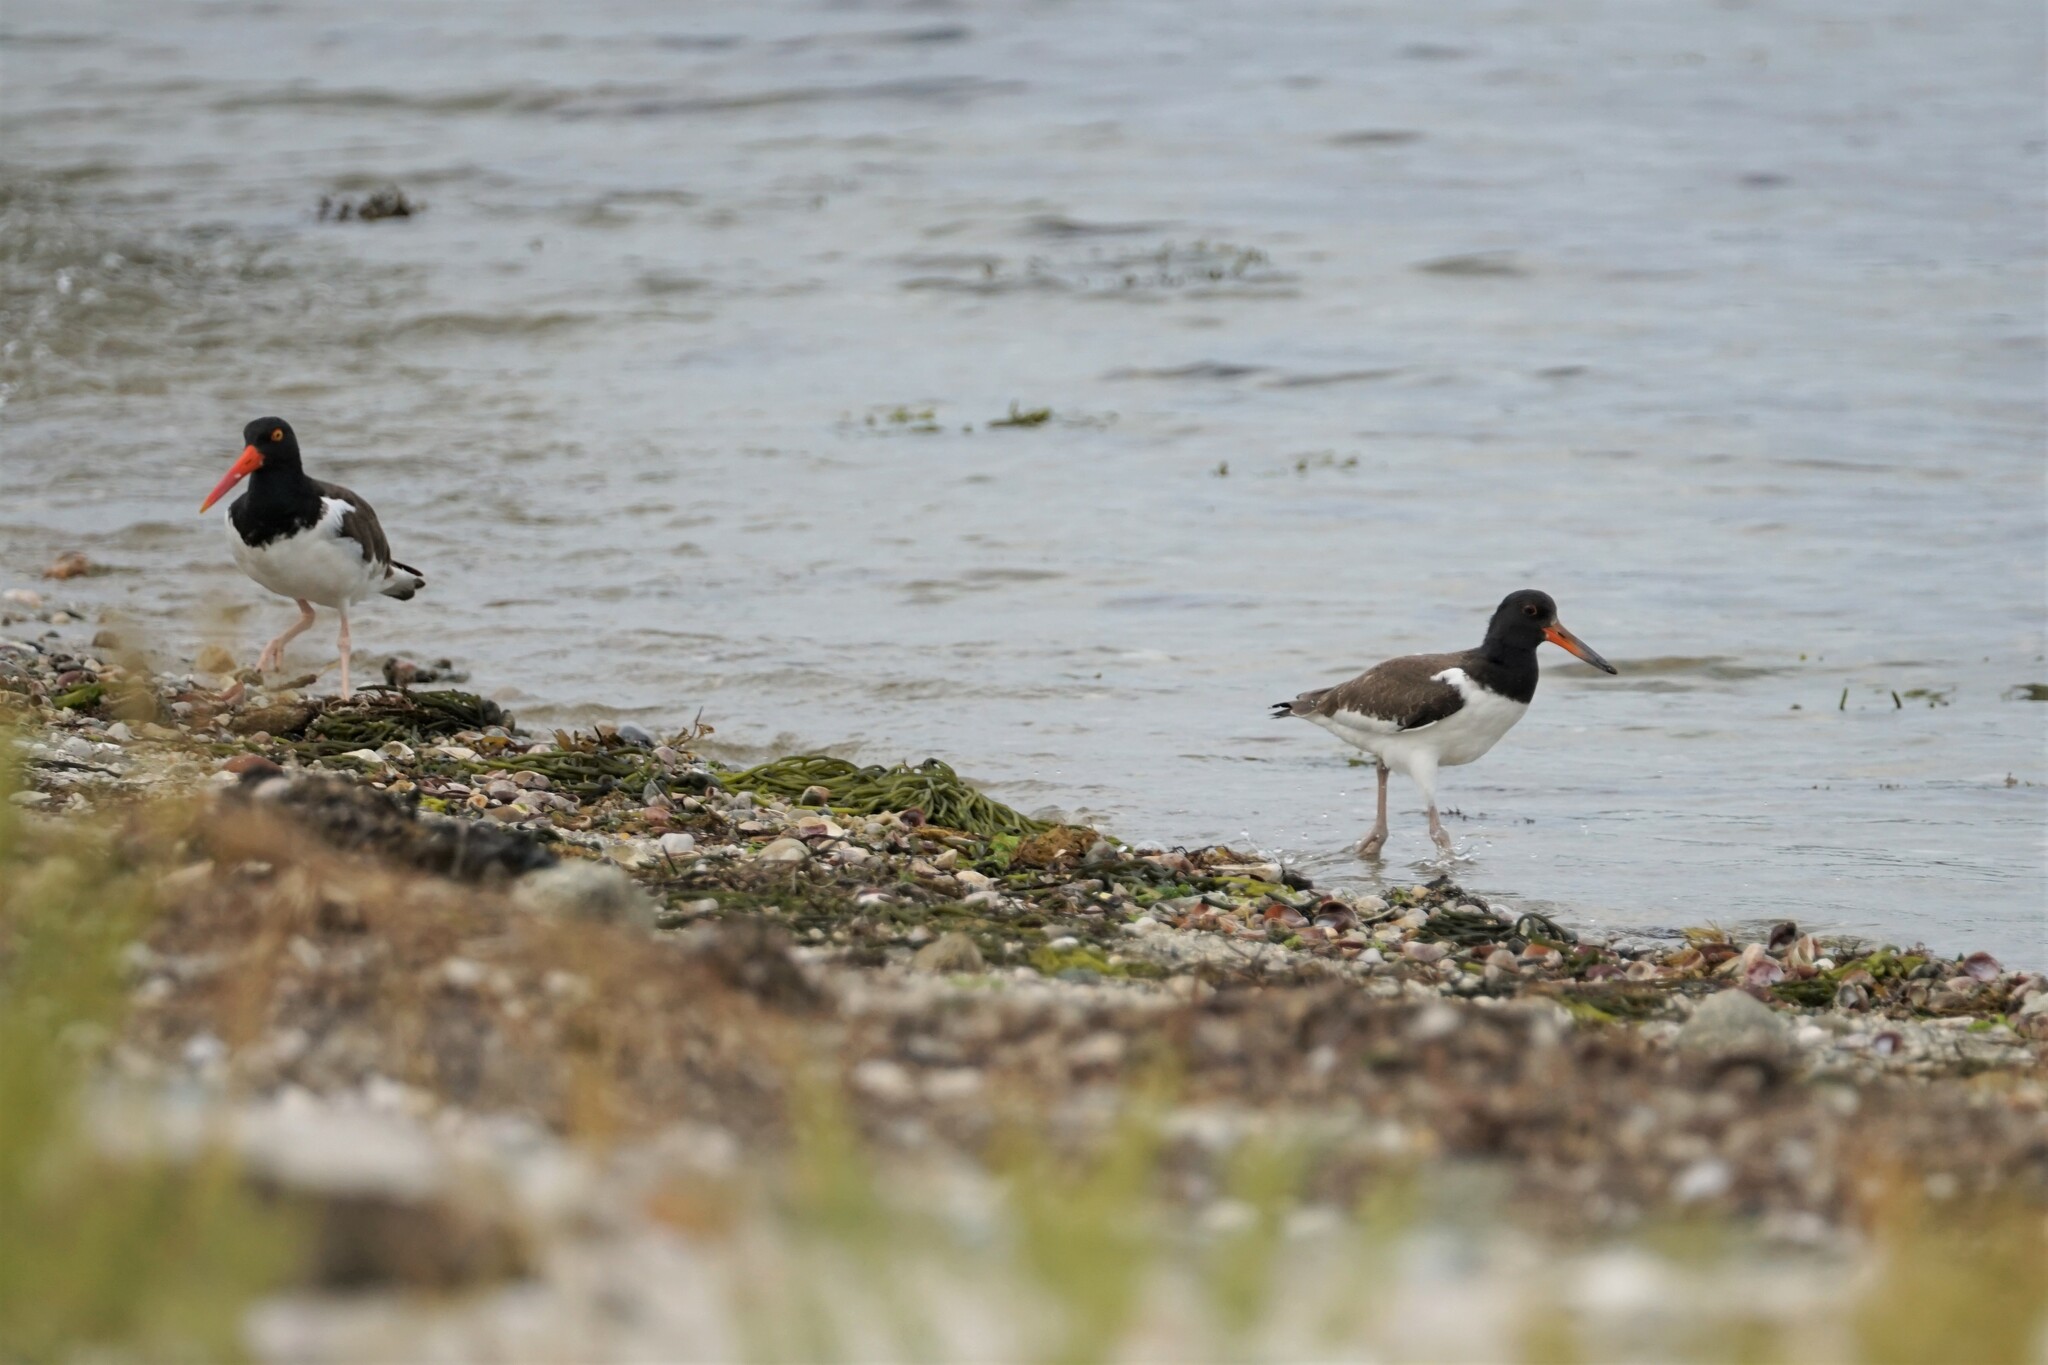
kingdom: Animalia
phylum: Chordata
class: Aves
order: Charadriiformes
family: Haematopodidae
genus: Haematopus
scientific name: Haematopus palliatus
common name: American oystercatcher
